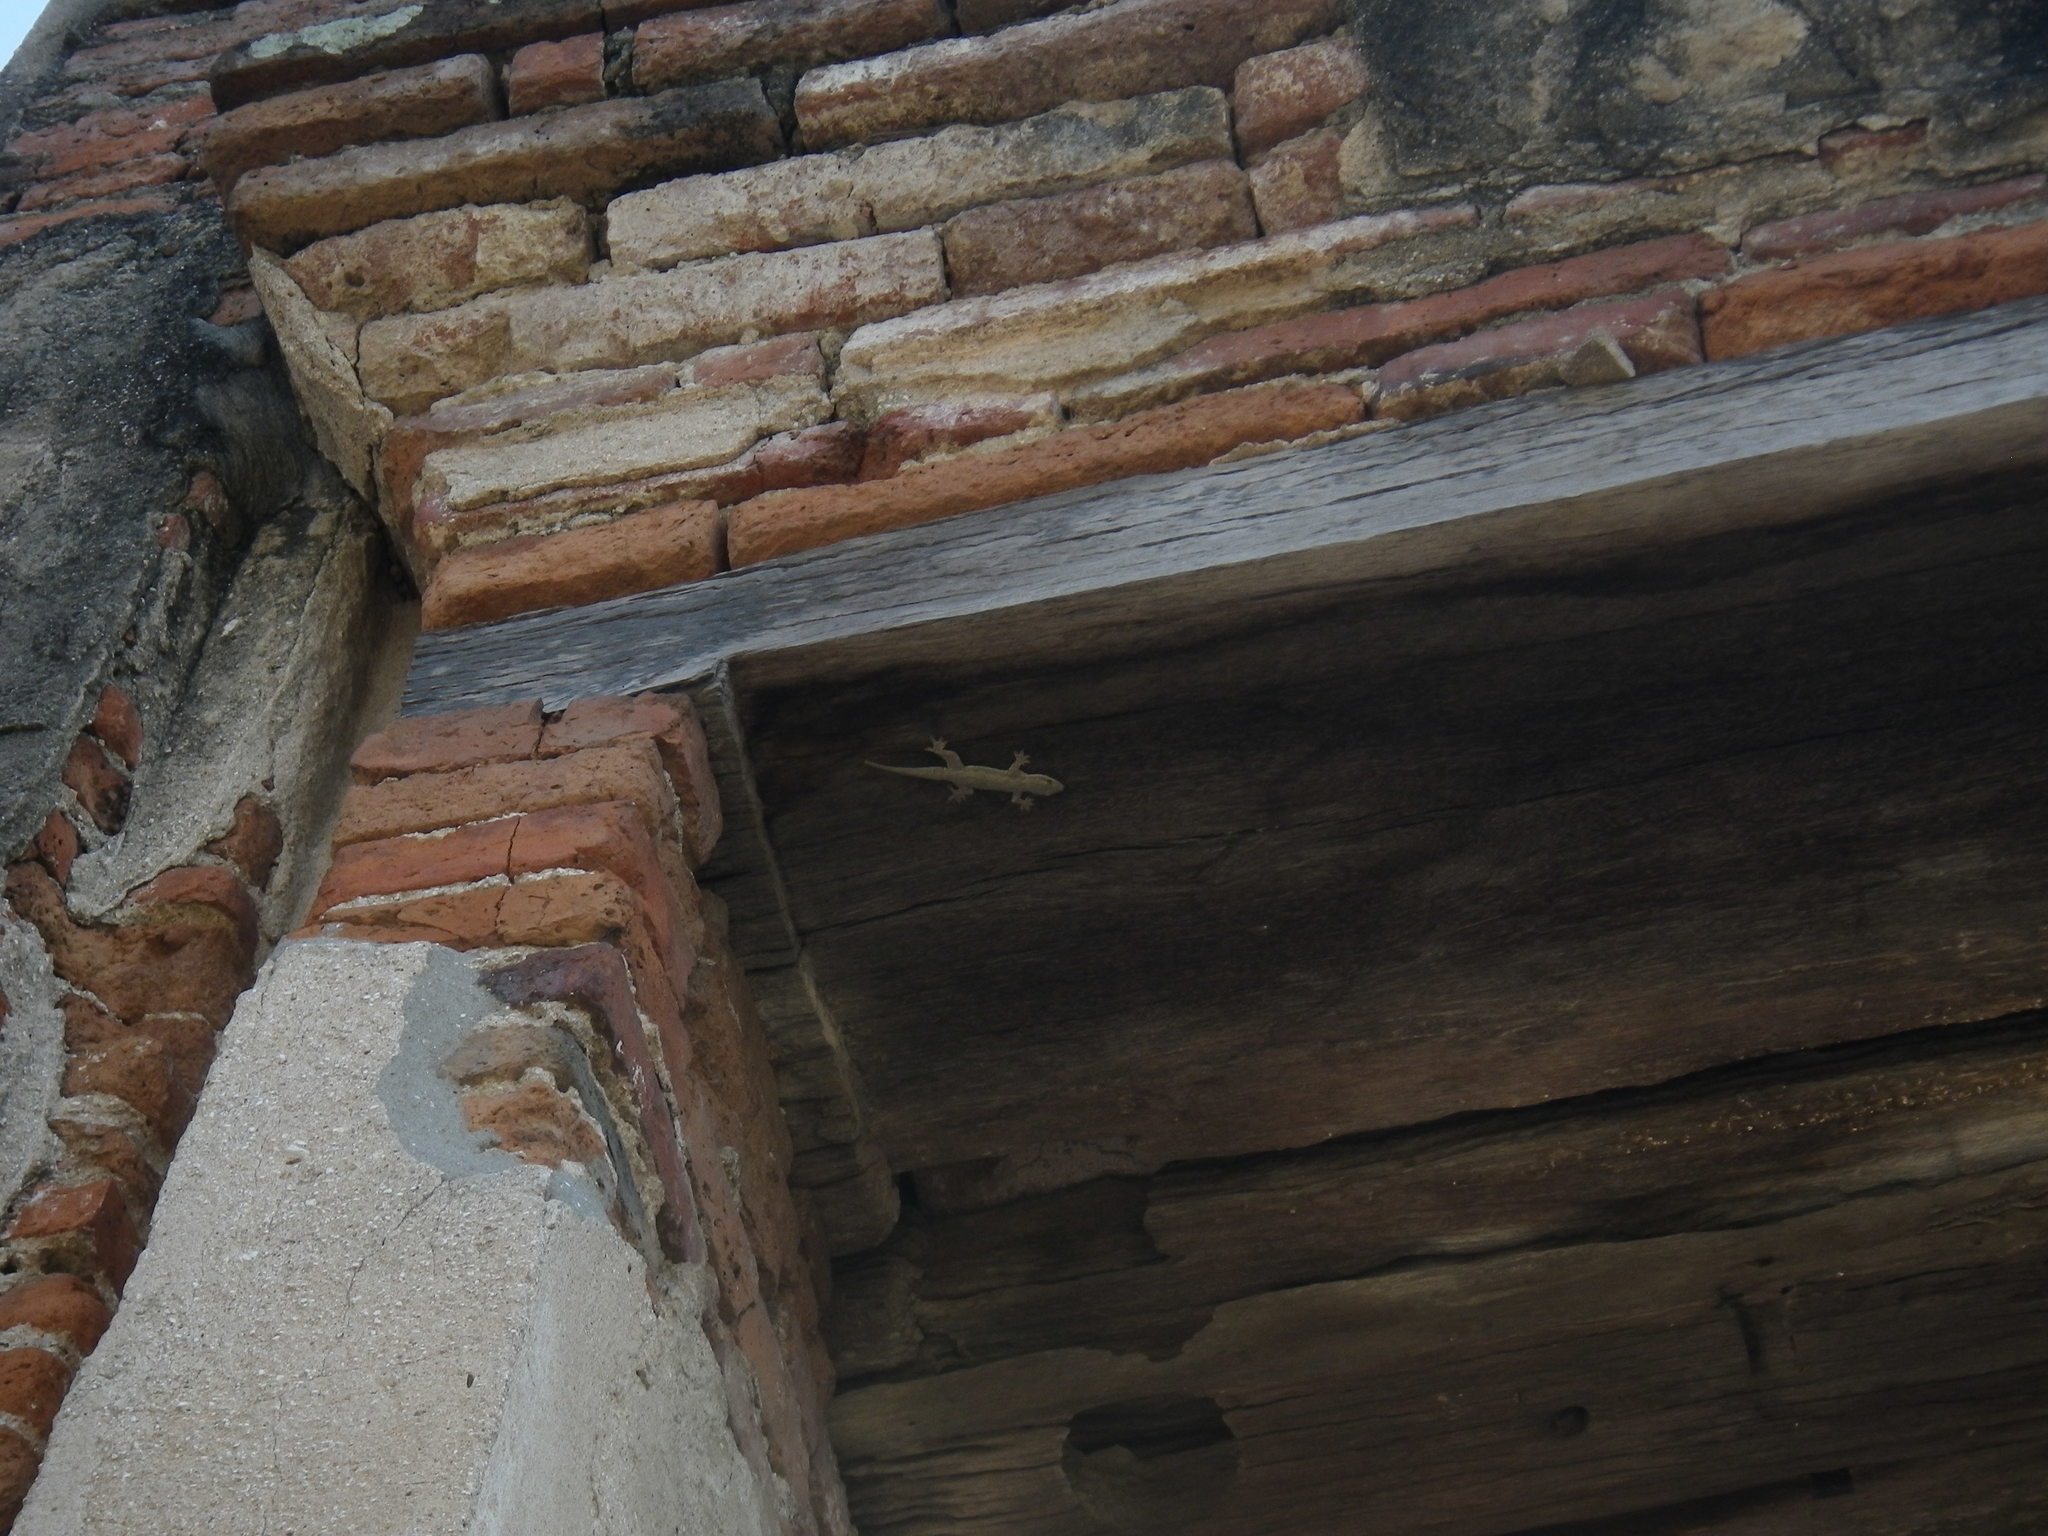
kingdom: Animalia
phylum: Chordata
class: Squamata
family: Gekkonidae
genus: Hemidactylus
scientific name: Hemidactylus platyurus
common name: Flat-tailed house gecko
